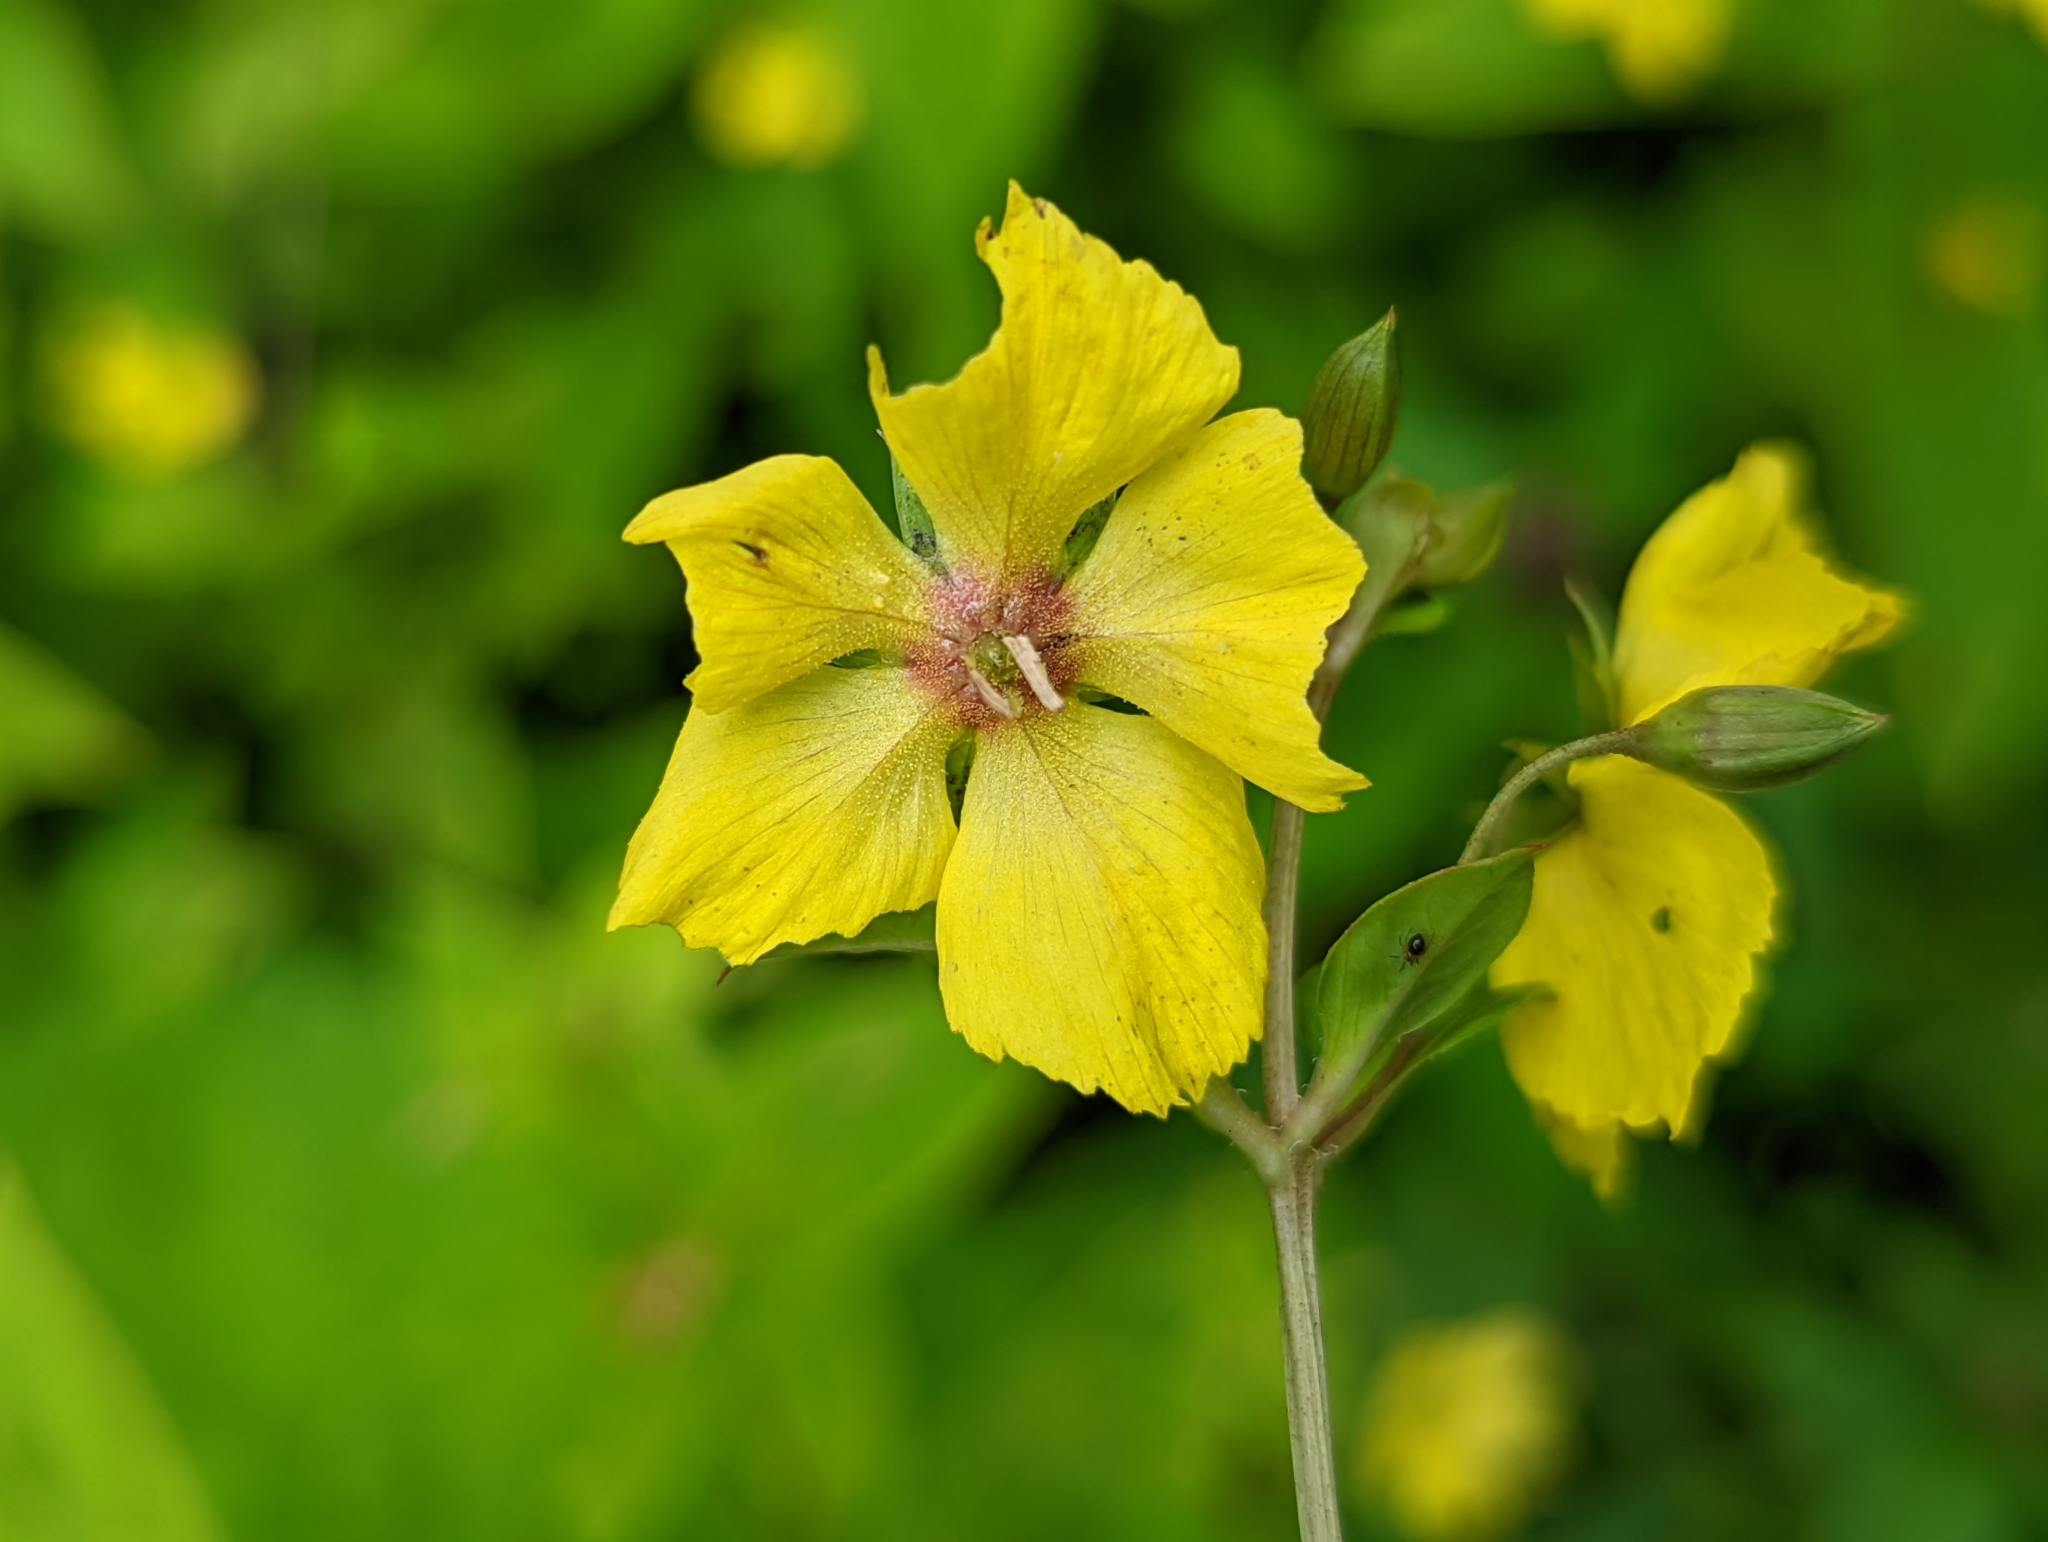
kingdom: Plantae
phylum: Tracheophyta
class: Magnoliopsida
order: Ericales
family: Primulaceae
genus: Lysimachia
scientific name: Lysimachia ciliata
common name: Fringed loosestrife
